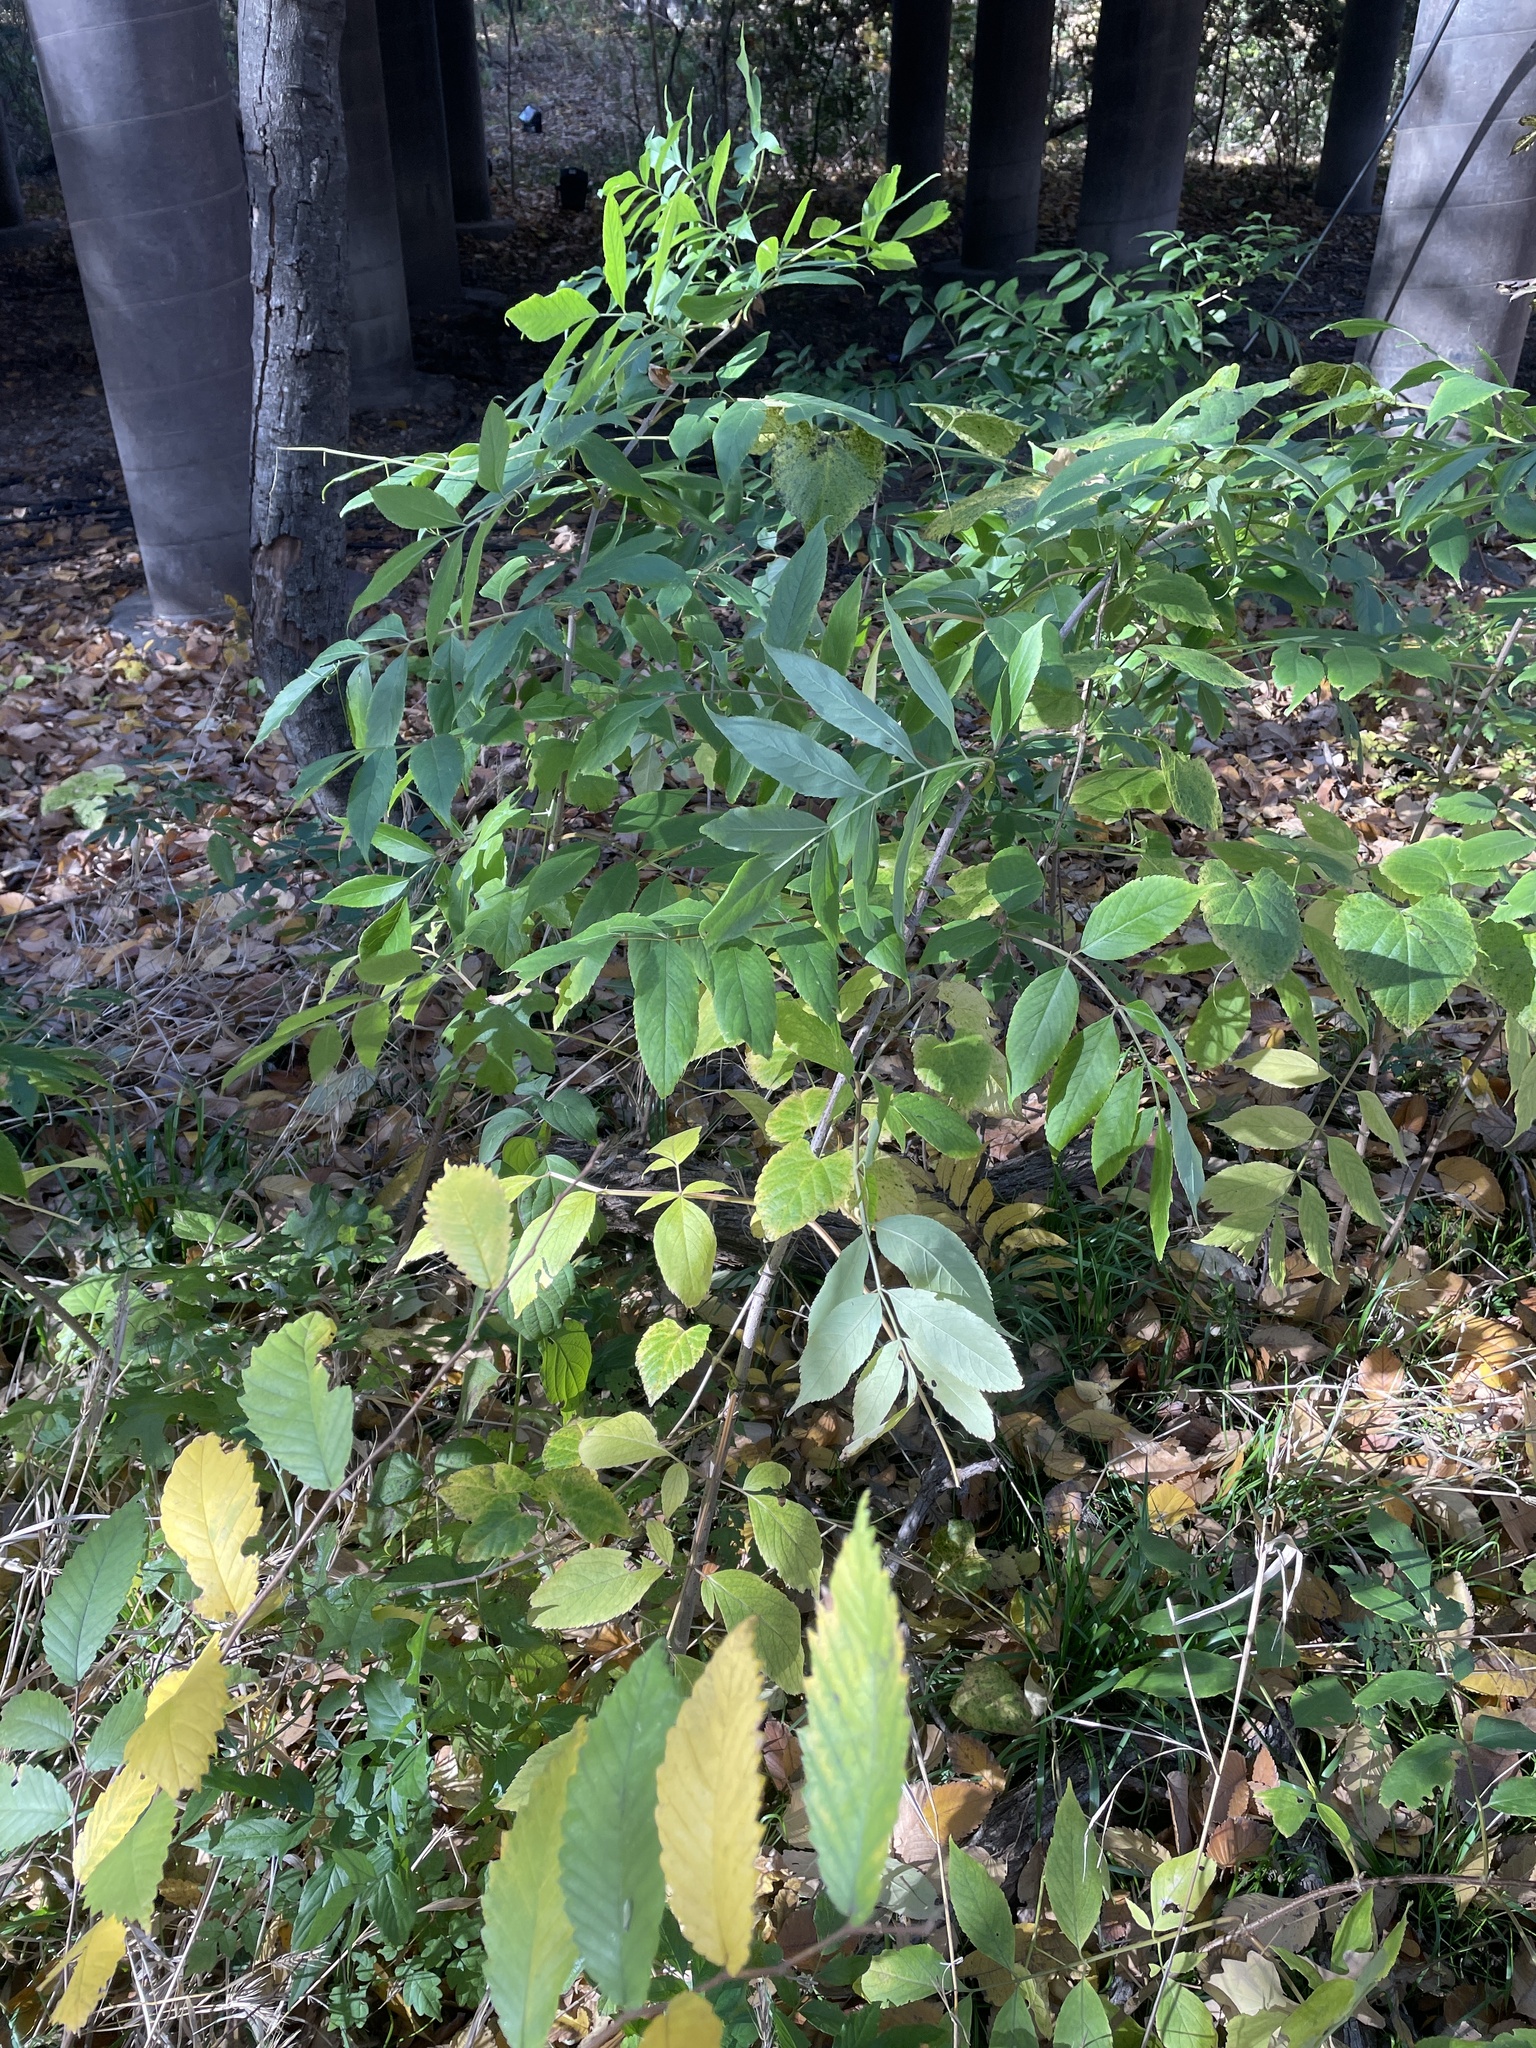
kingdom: Plantae
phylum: Tracheophyta
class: Magnoliopsida
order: Dipsacales
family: Viburnaceae
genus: Sambucus
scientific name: Sambucus canadensis
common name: American elder
